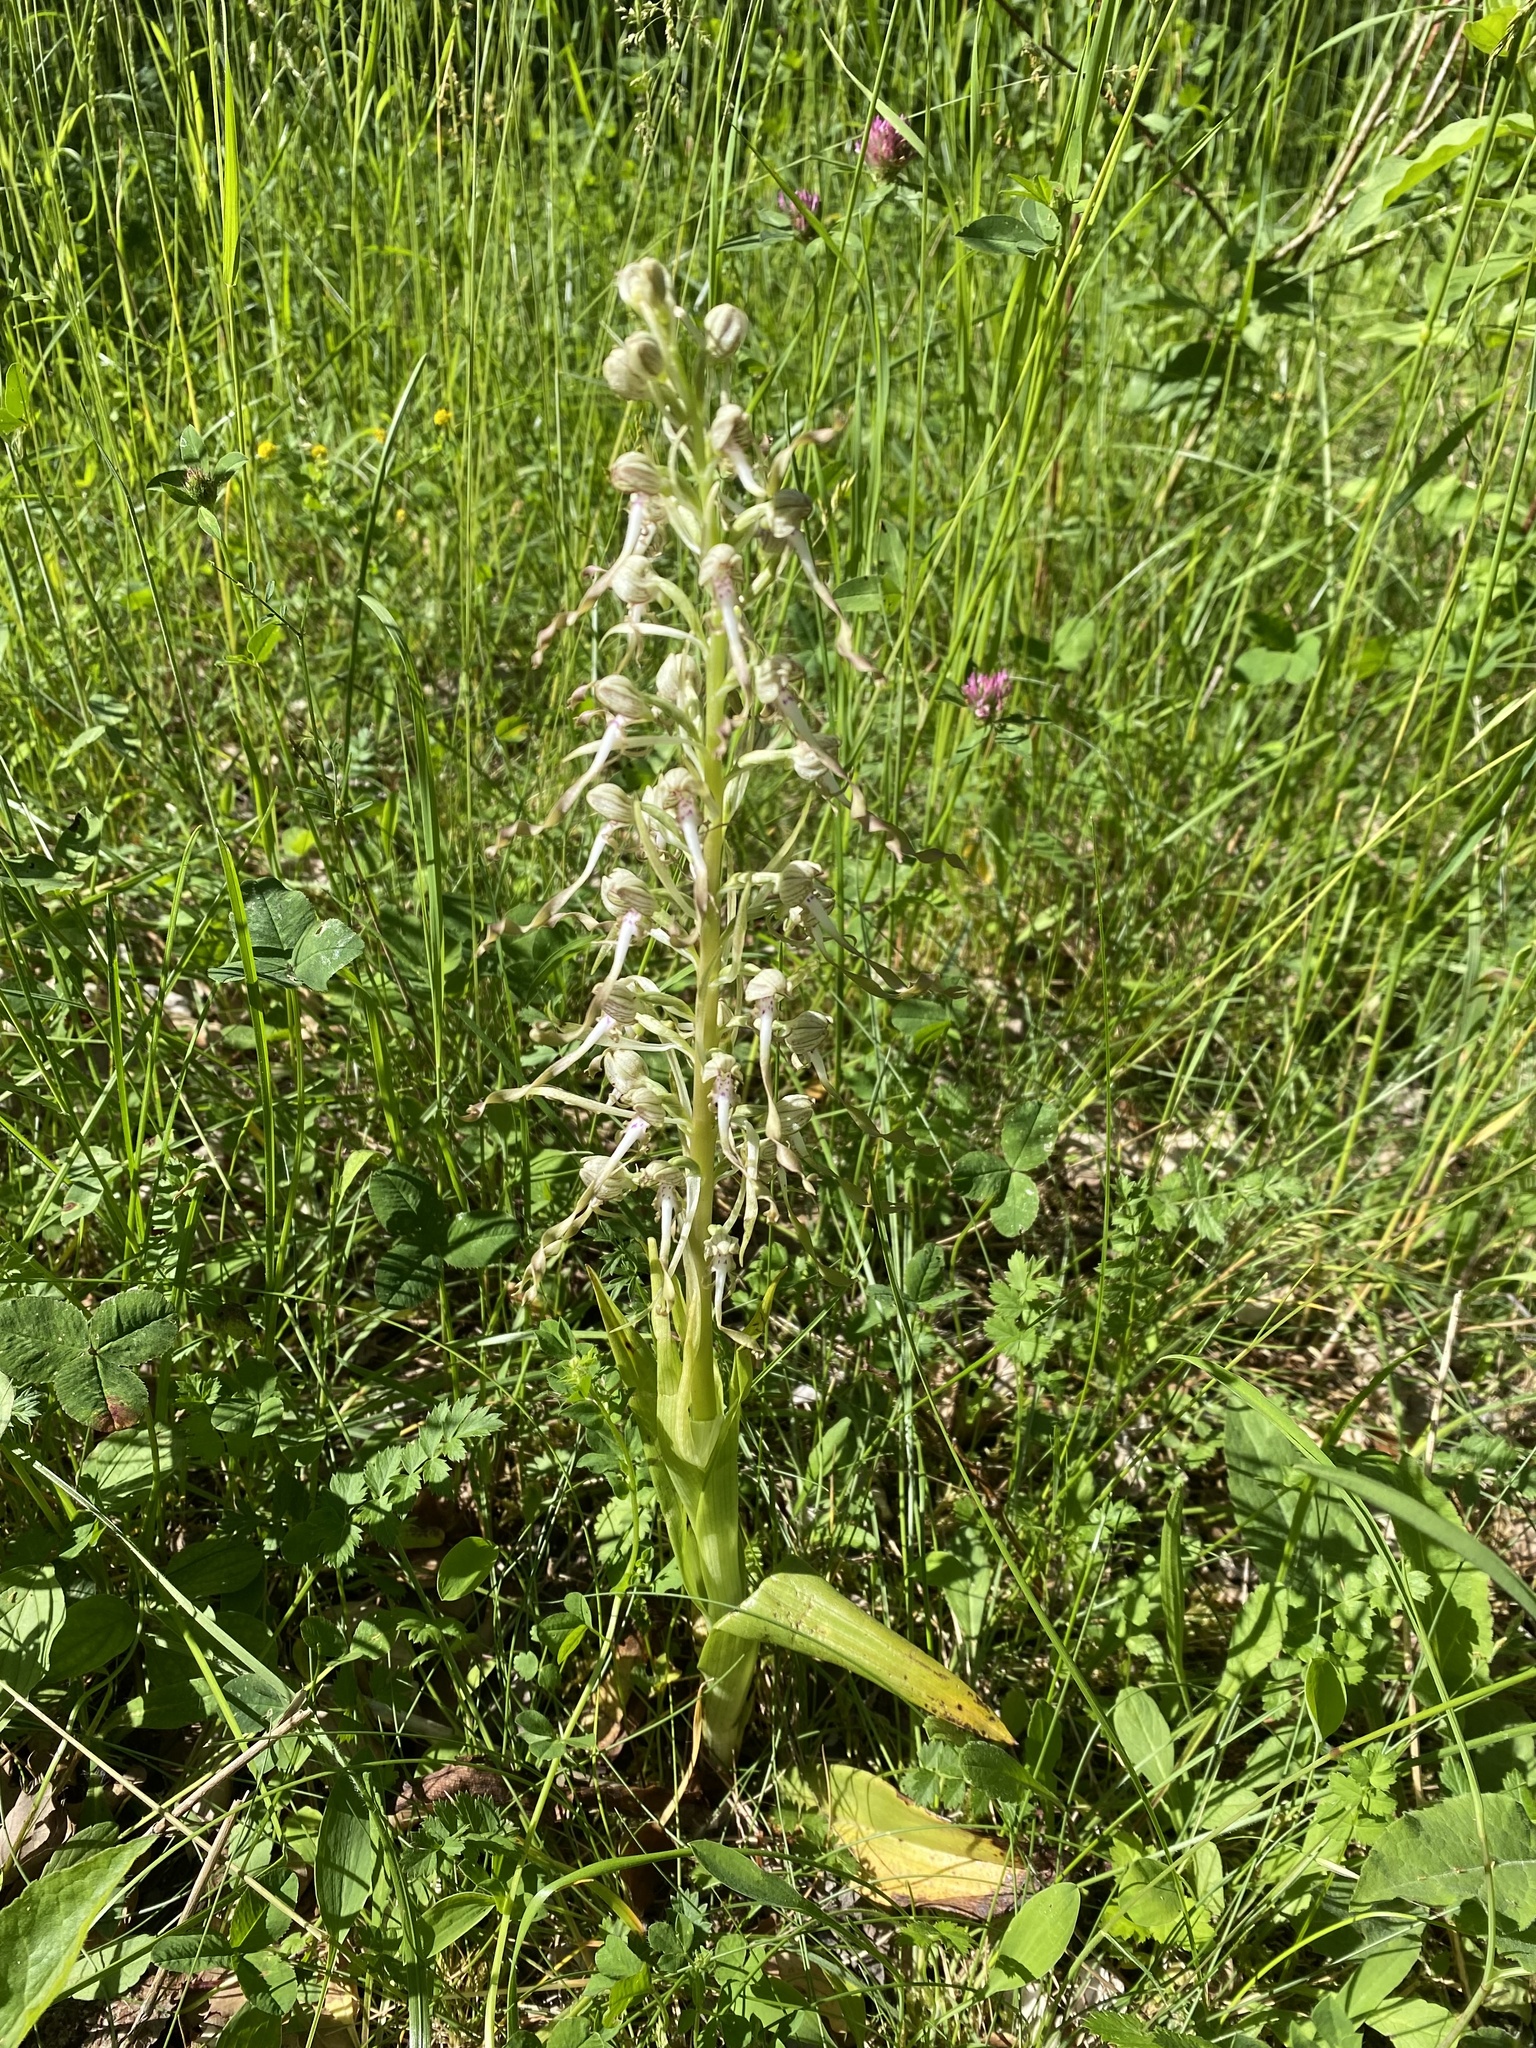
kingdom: Plantae
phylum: Tracheophyta
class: Liliopsida
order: Asparagales
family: Orchidaceae
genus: Himantoglossum
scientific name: Himantoglossum hircinum
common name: Lizard orchid
